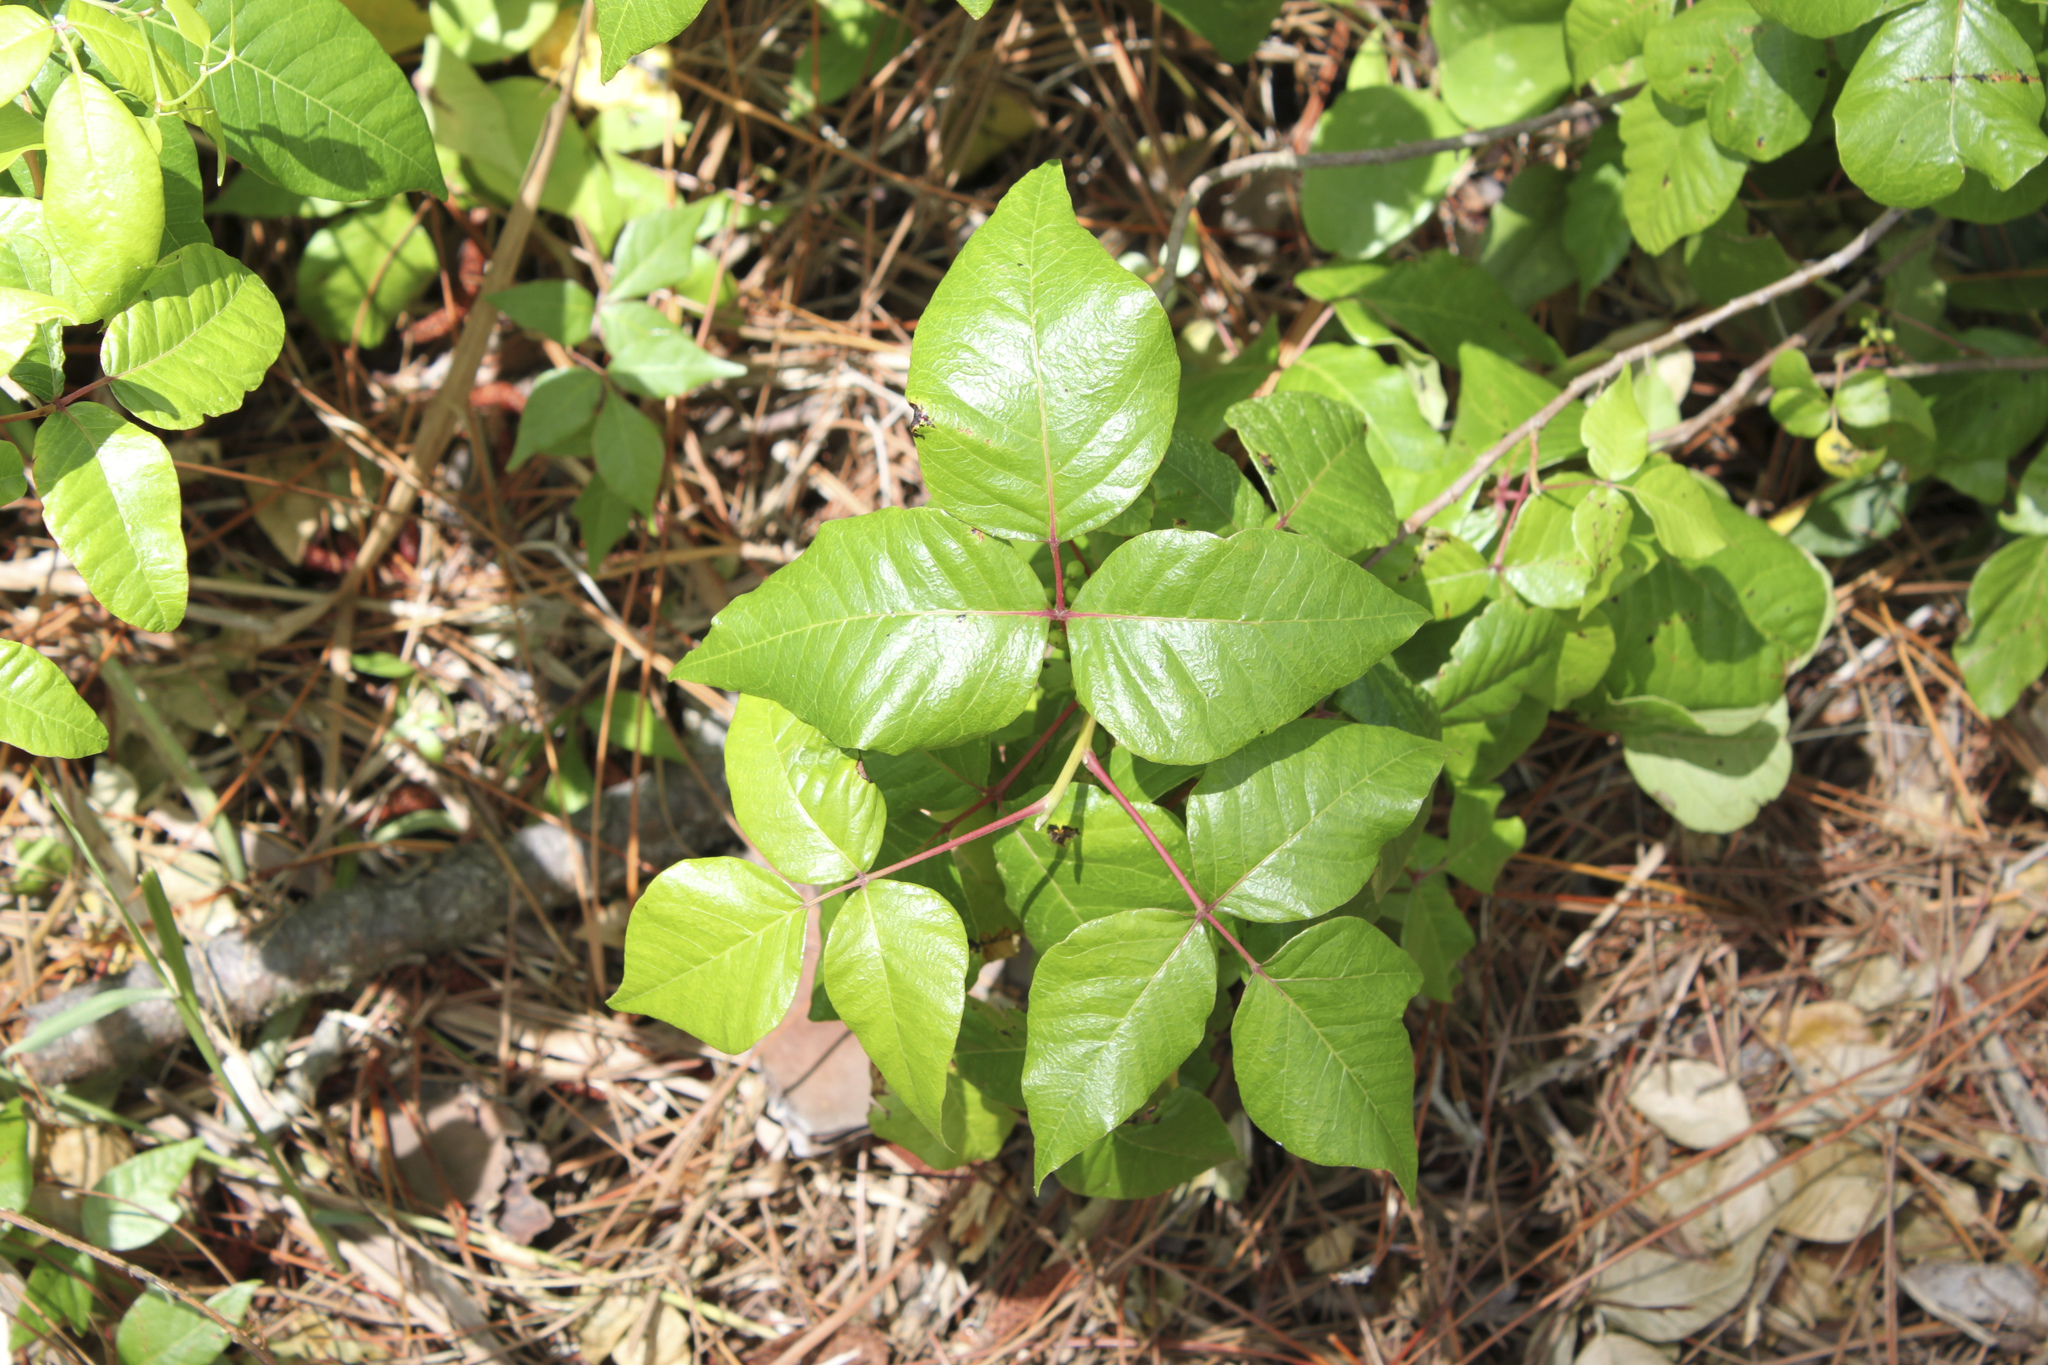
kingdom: Plantae
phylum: Tracheophyta
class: Magnoliopsida
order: Sapindales
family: Anacardiaceae
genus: Toxicodendron
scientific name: Toxicodendron radicans
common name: Poison ivy
